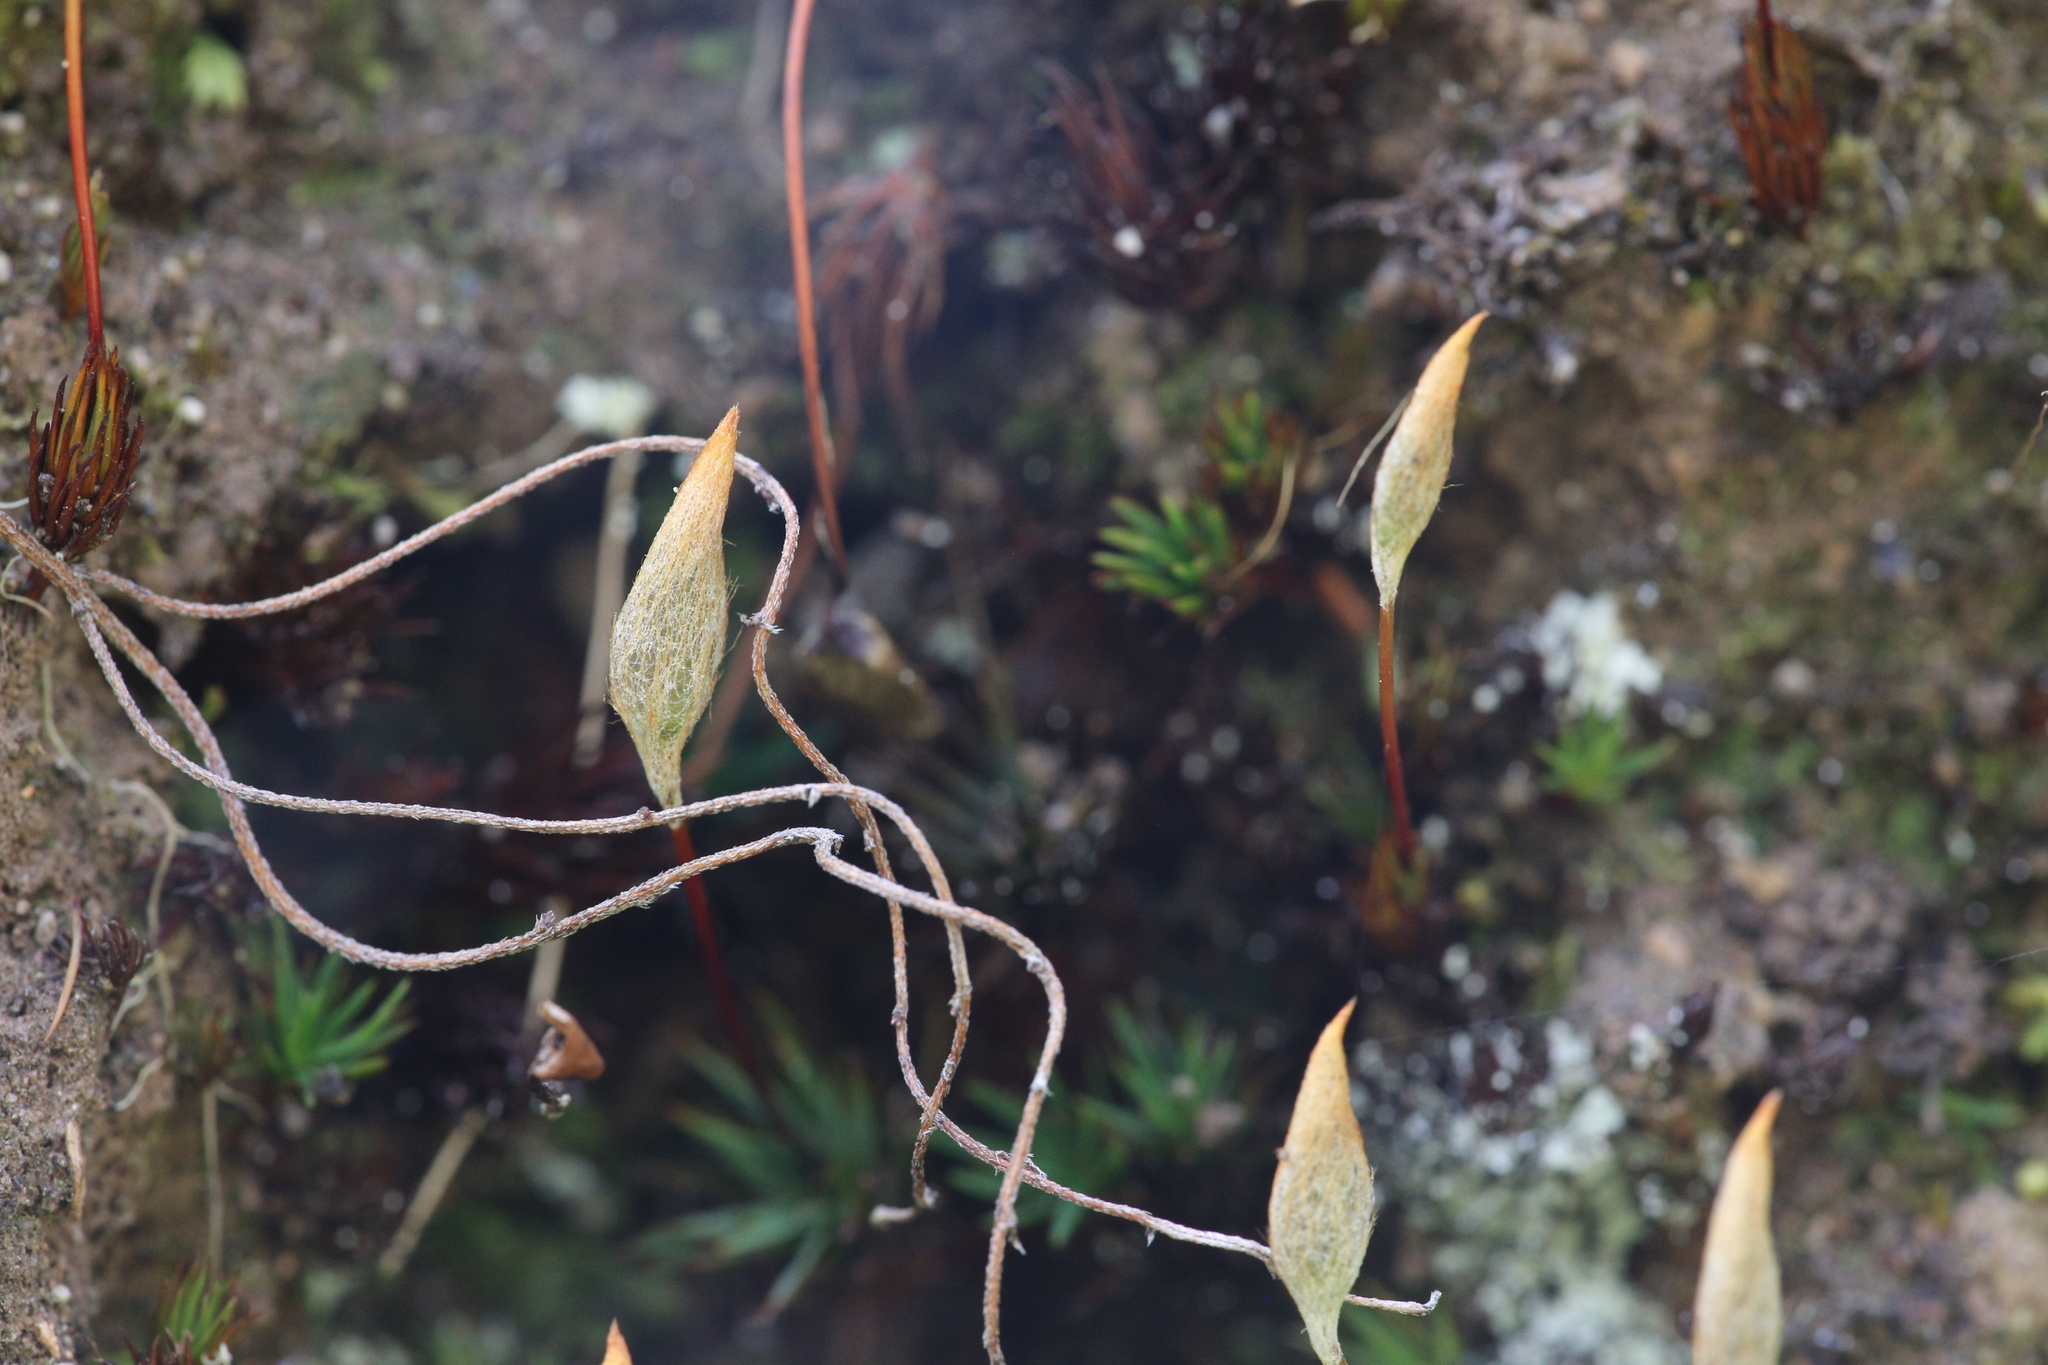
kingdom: Plantae
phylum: Bryophyta
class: Polytrichopsida
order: Polytrichales
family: Polytrichaceae
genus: Dawsonia
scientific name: Dawsonia longiseta
